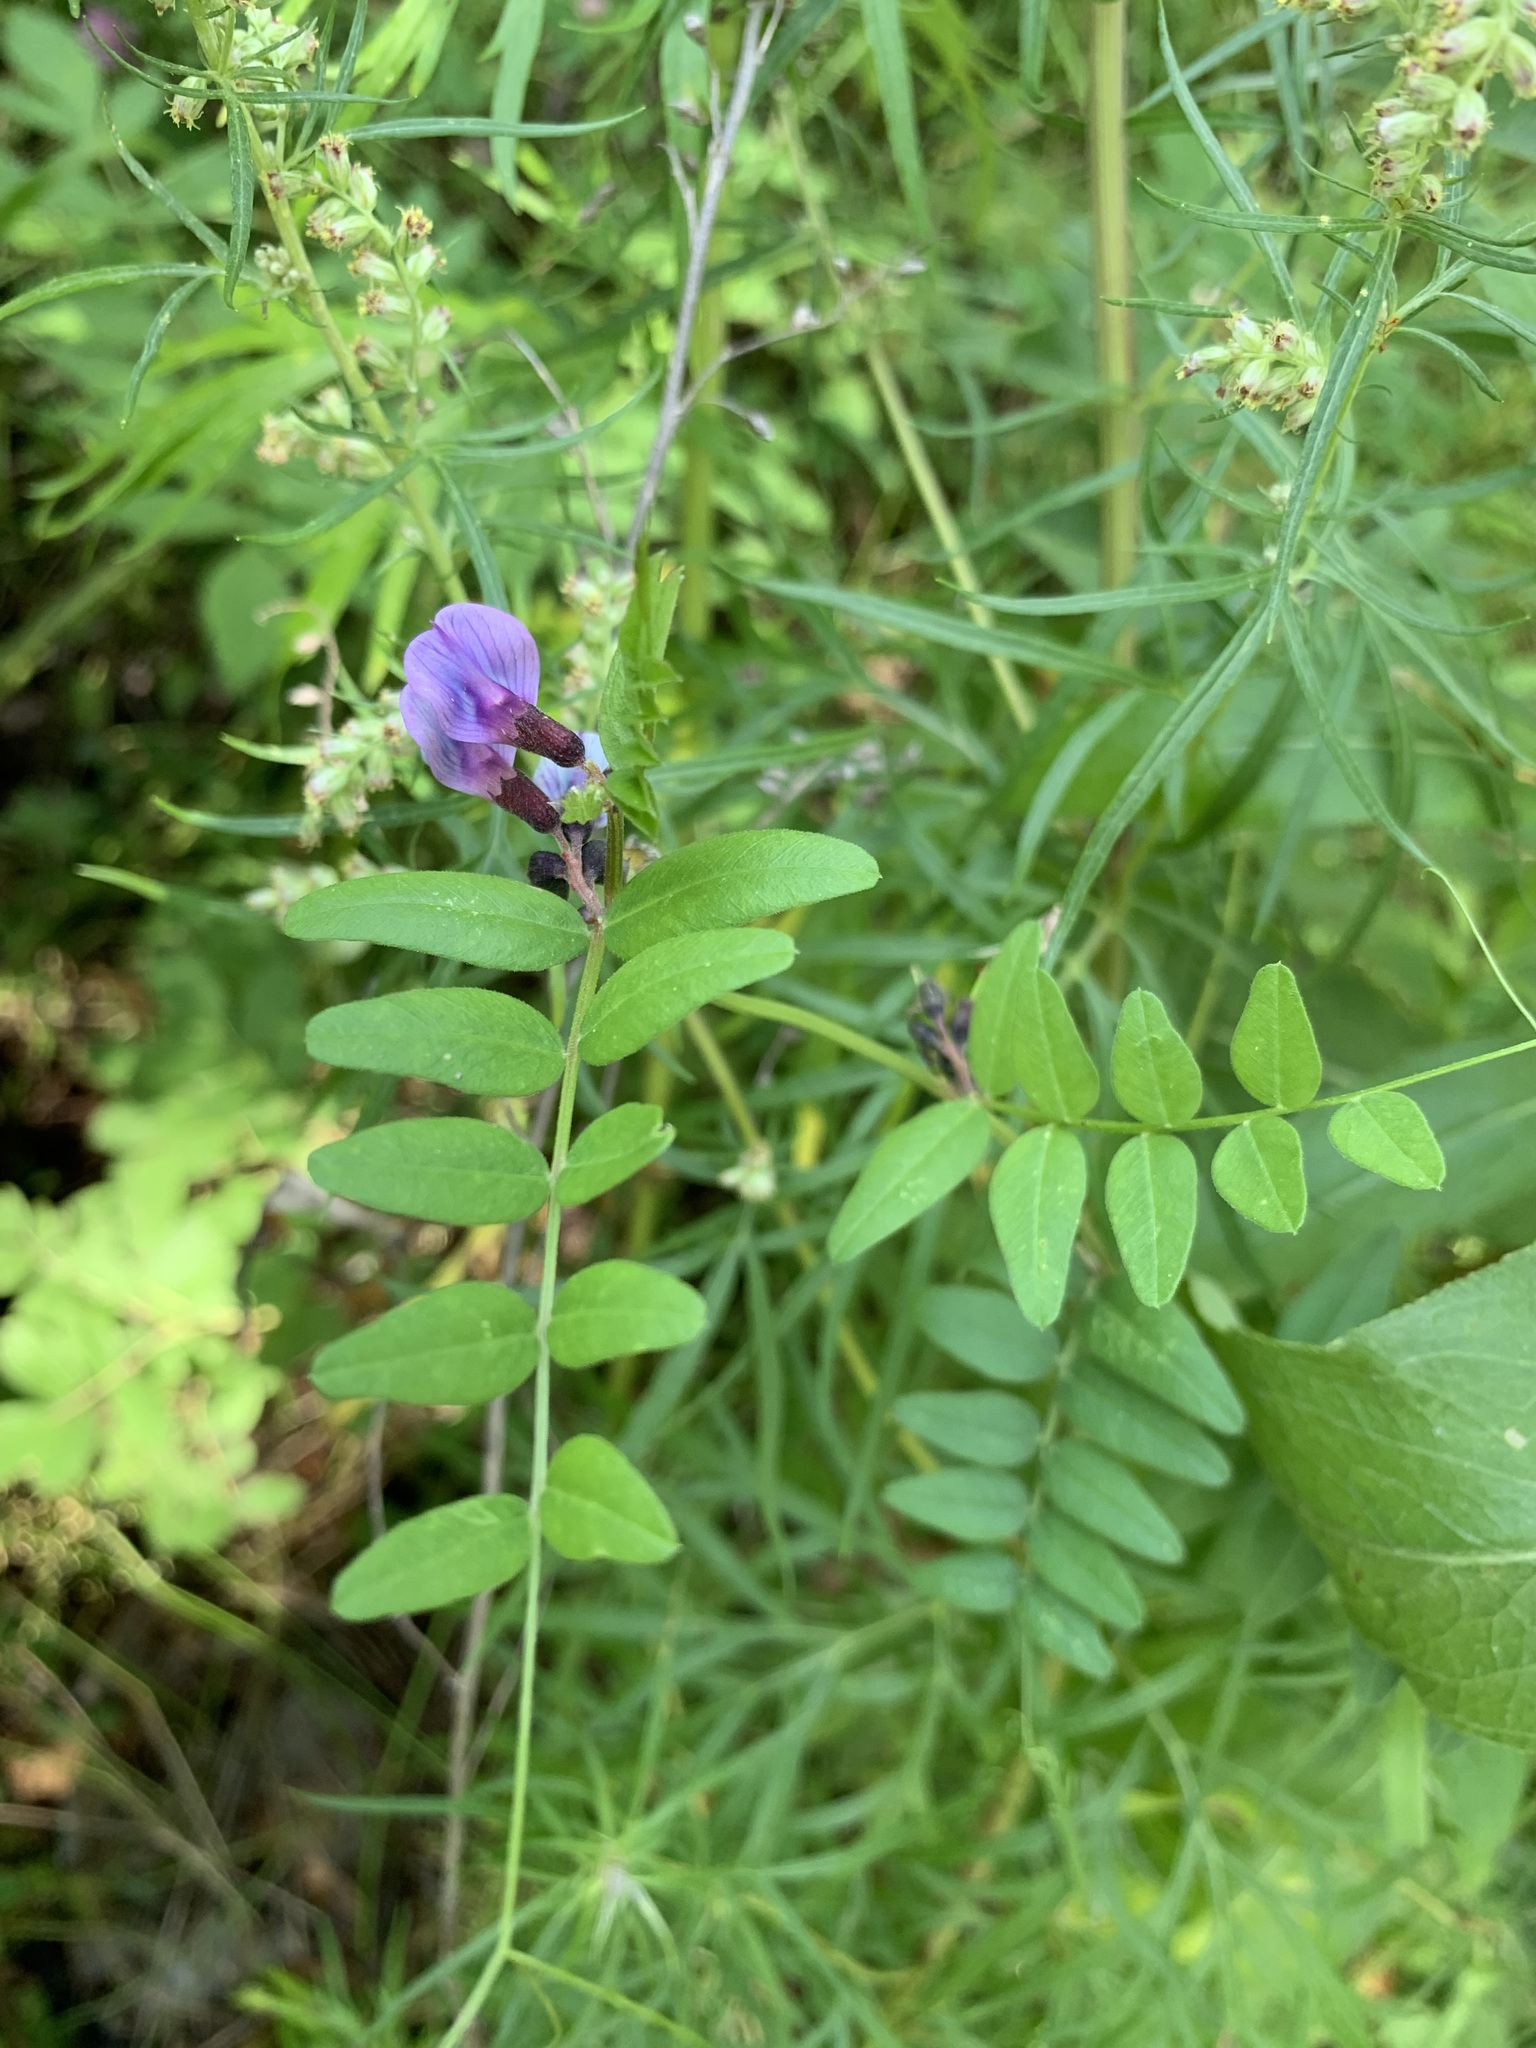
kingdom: Plantae
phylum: Tracheophyta
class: Magnoliopsida
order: Fabales
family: Fabaceae
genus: Vicia
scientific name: Vicia sepium
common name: Bush vetch
